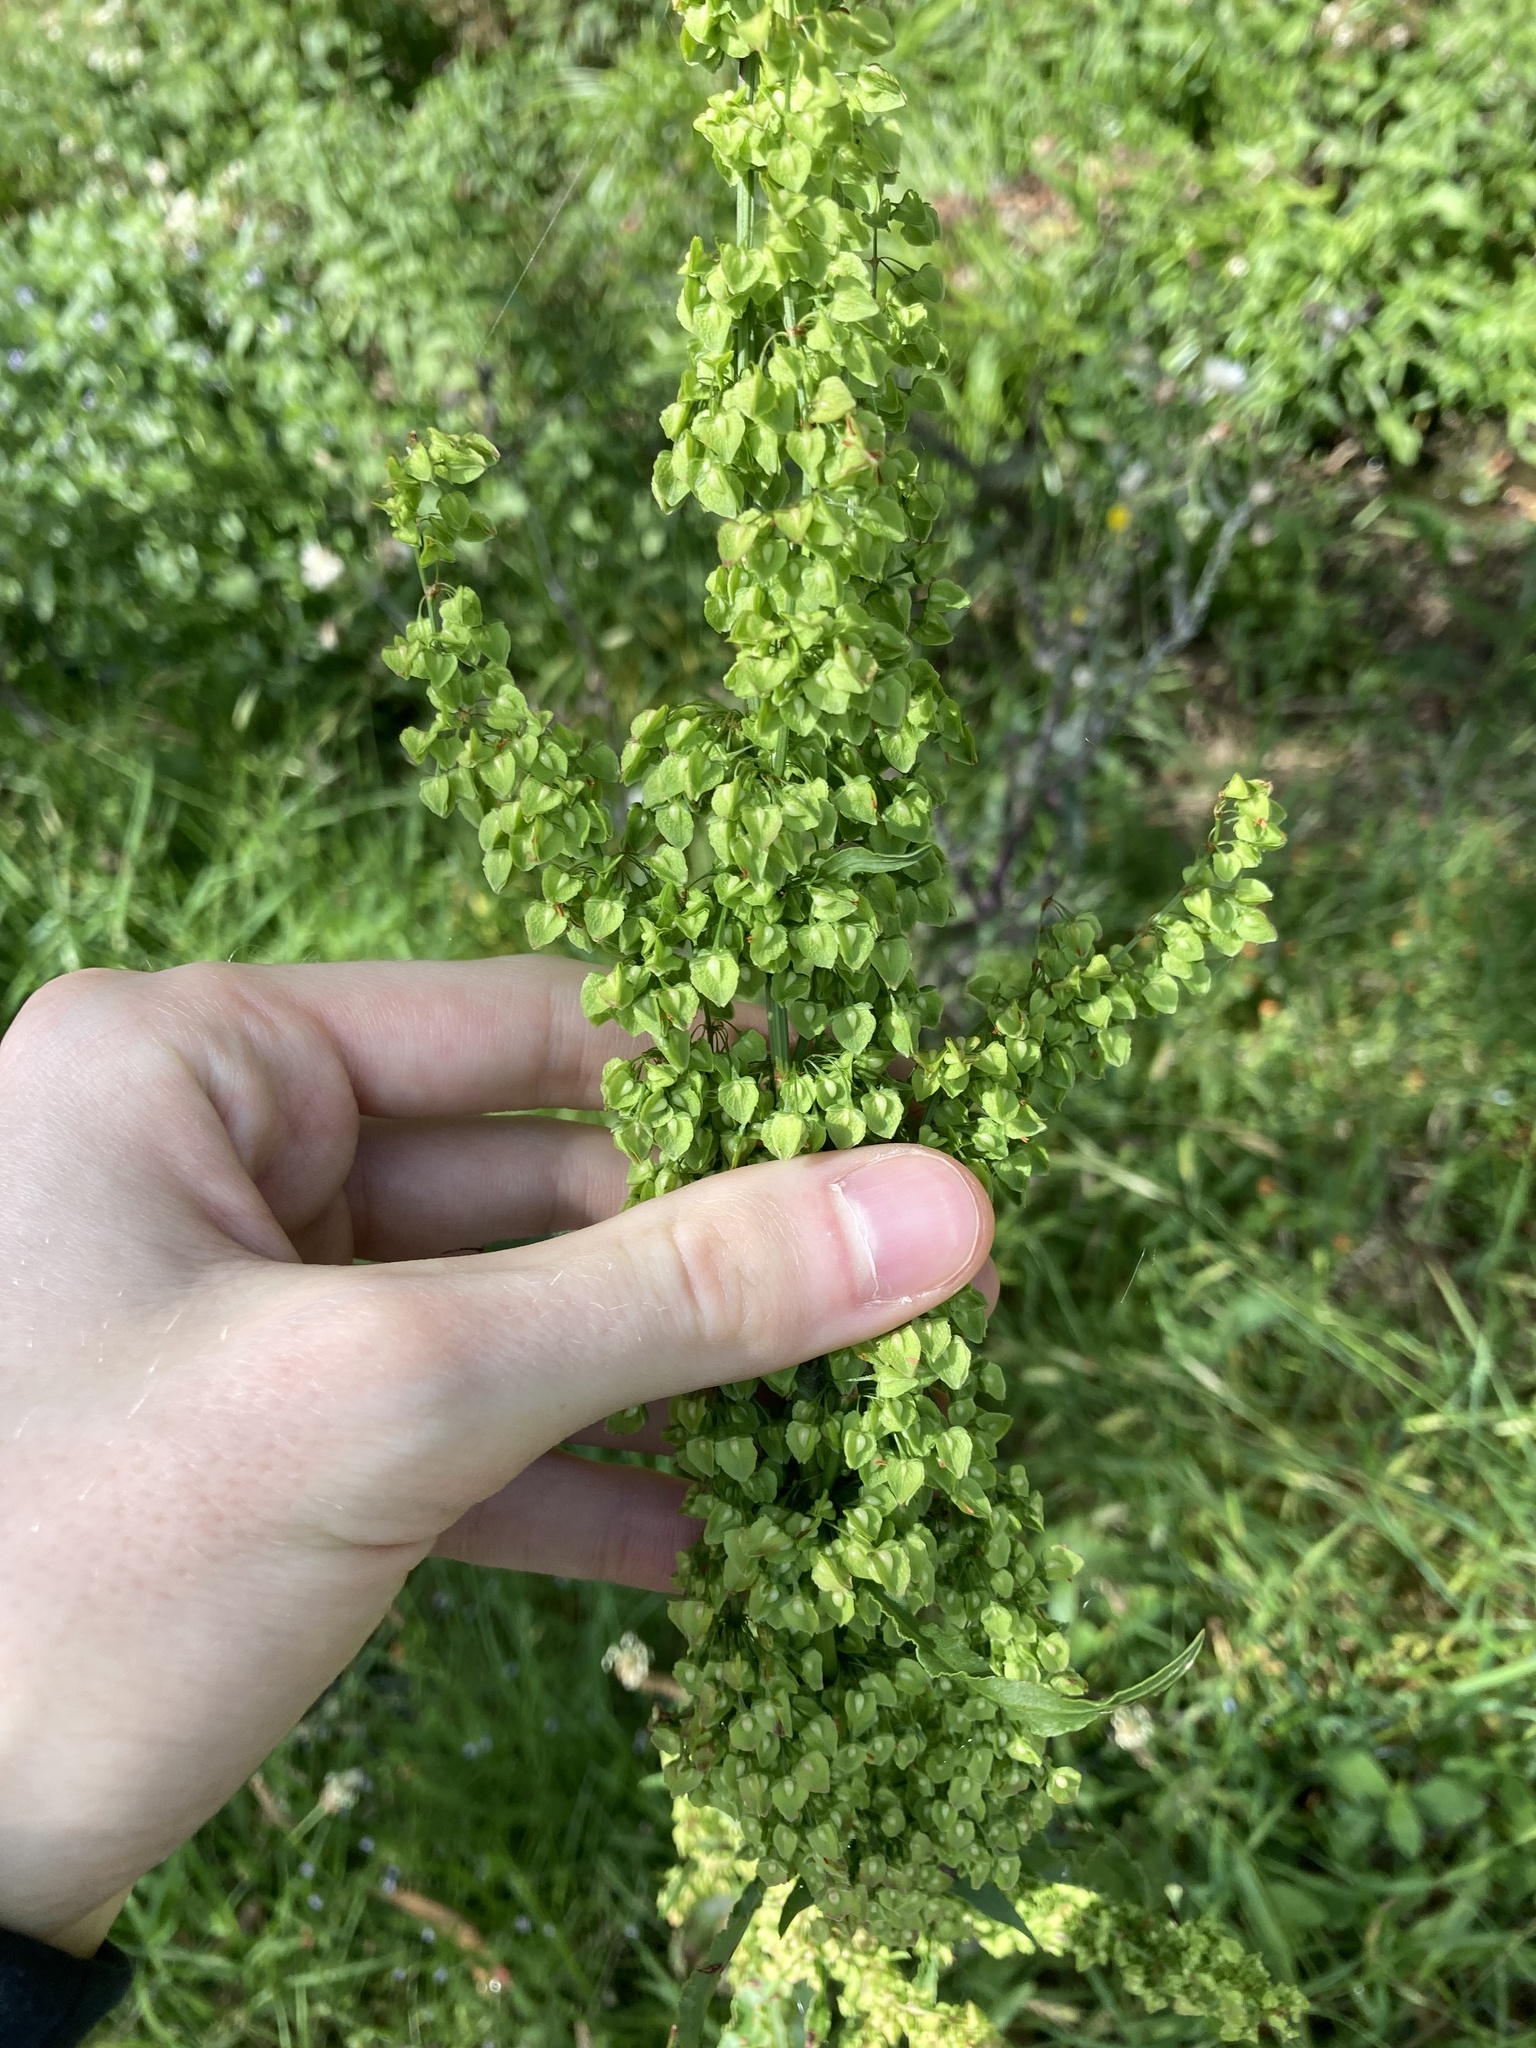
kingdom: Plantae
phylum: Tracheophyta
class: Magnoliopsida
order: Caryophyllales
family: Polygonaceae
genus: Rumex
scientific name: Rumex crispus
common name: Curled dock
